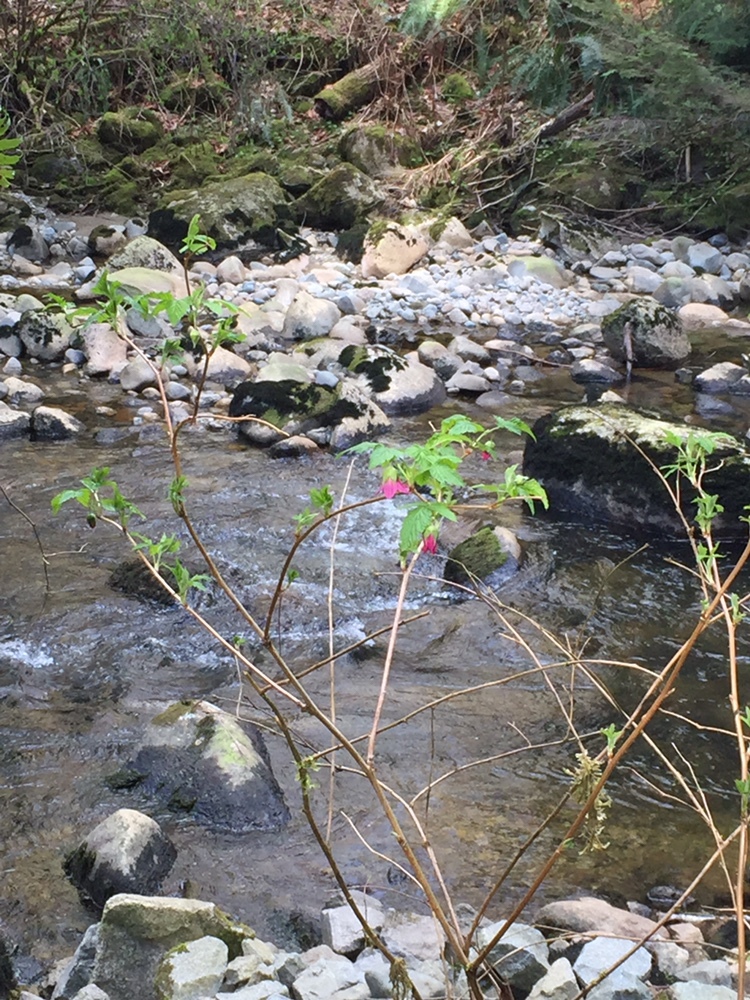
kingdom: Plantae
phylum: Tracheophyta
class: Magnoliopsida
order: Rosales
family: Rosaceae
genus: Rubus
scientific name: Rubus spectabilis
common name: Salmonberry
